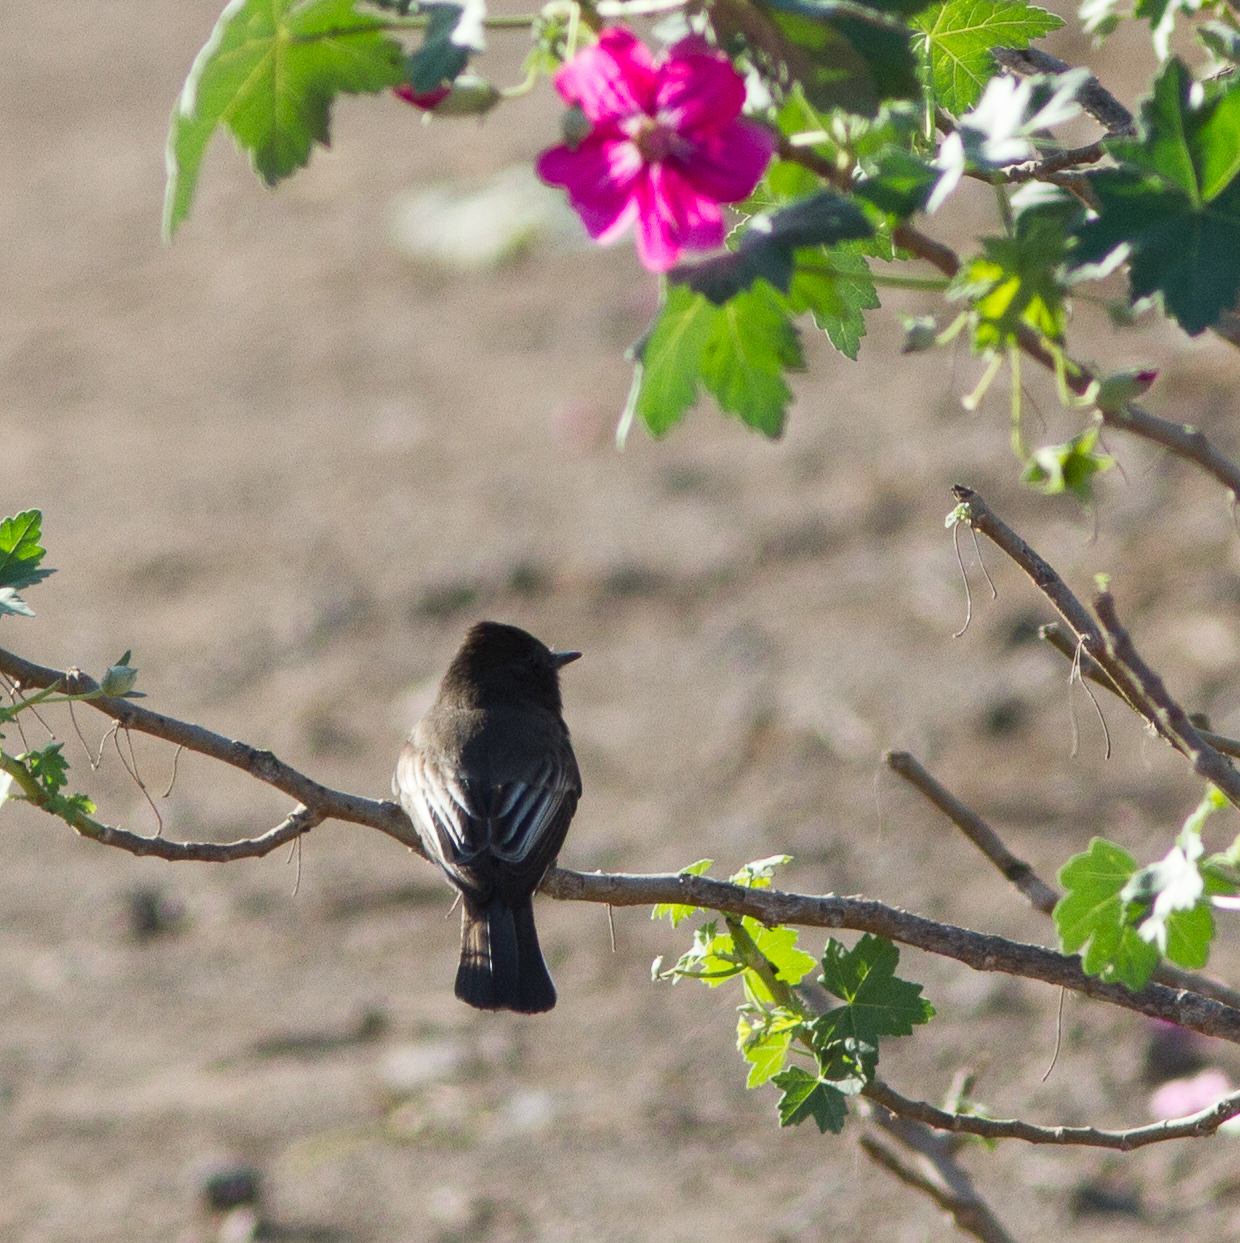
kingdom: Animalia
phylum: Chordata
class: Aves
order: Passeriformes
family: Tyrannidae
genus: Sayornis
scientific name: Sayornis nigricans
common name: Black phoebe
